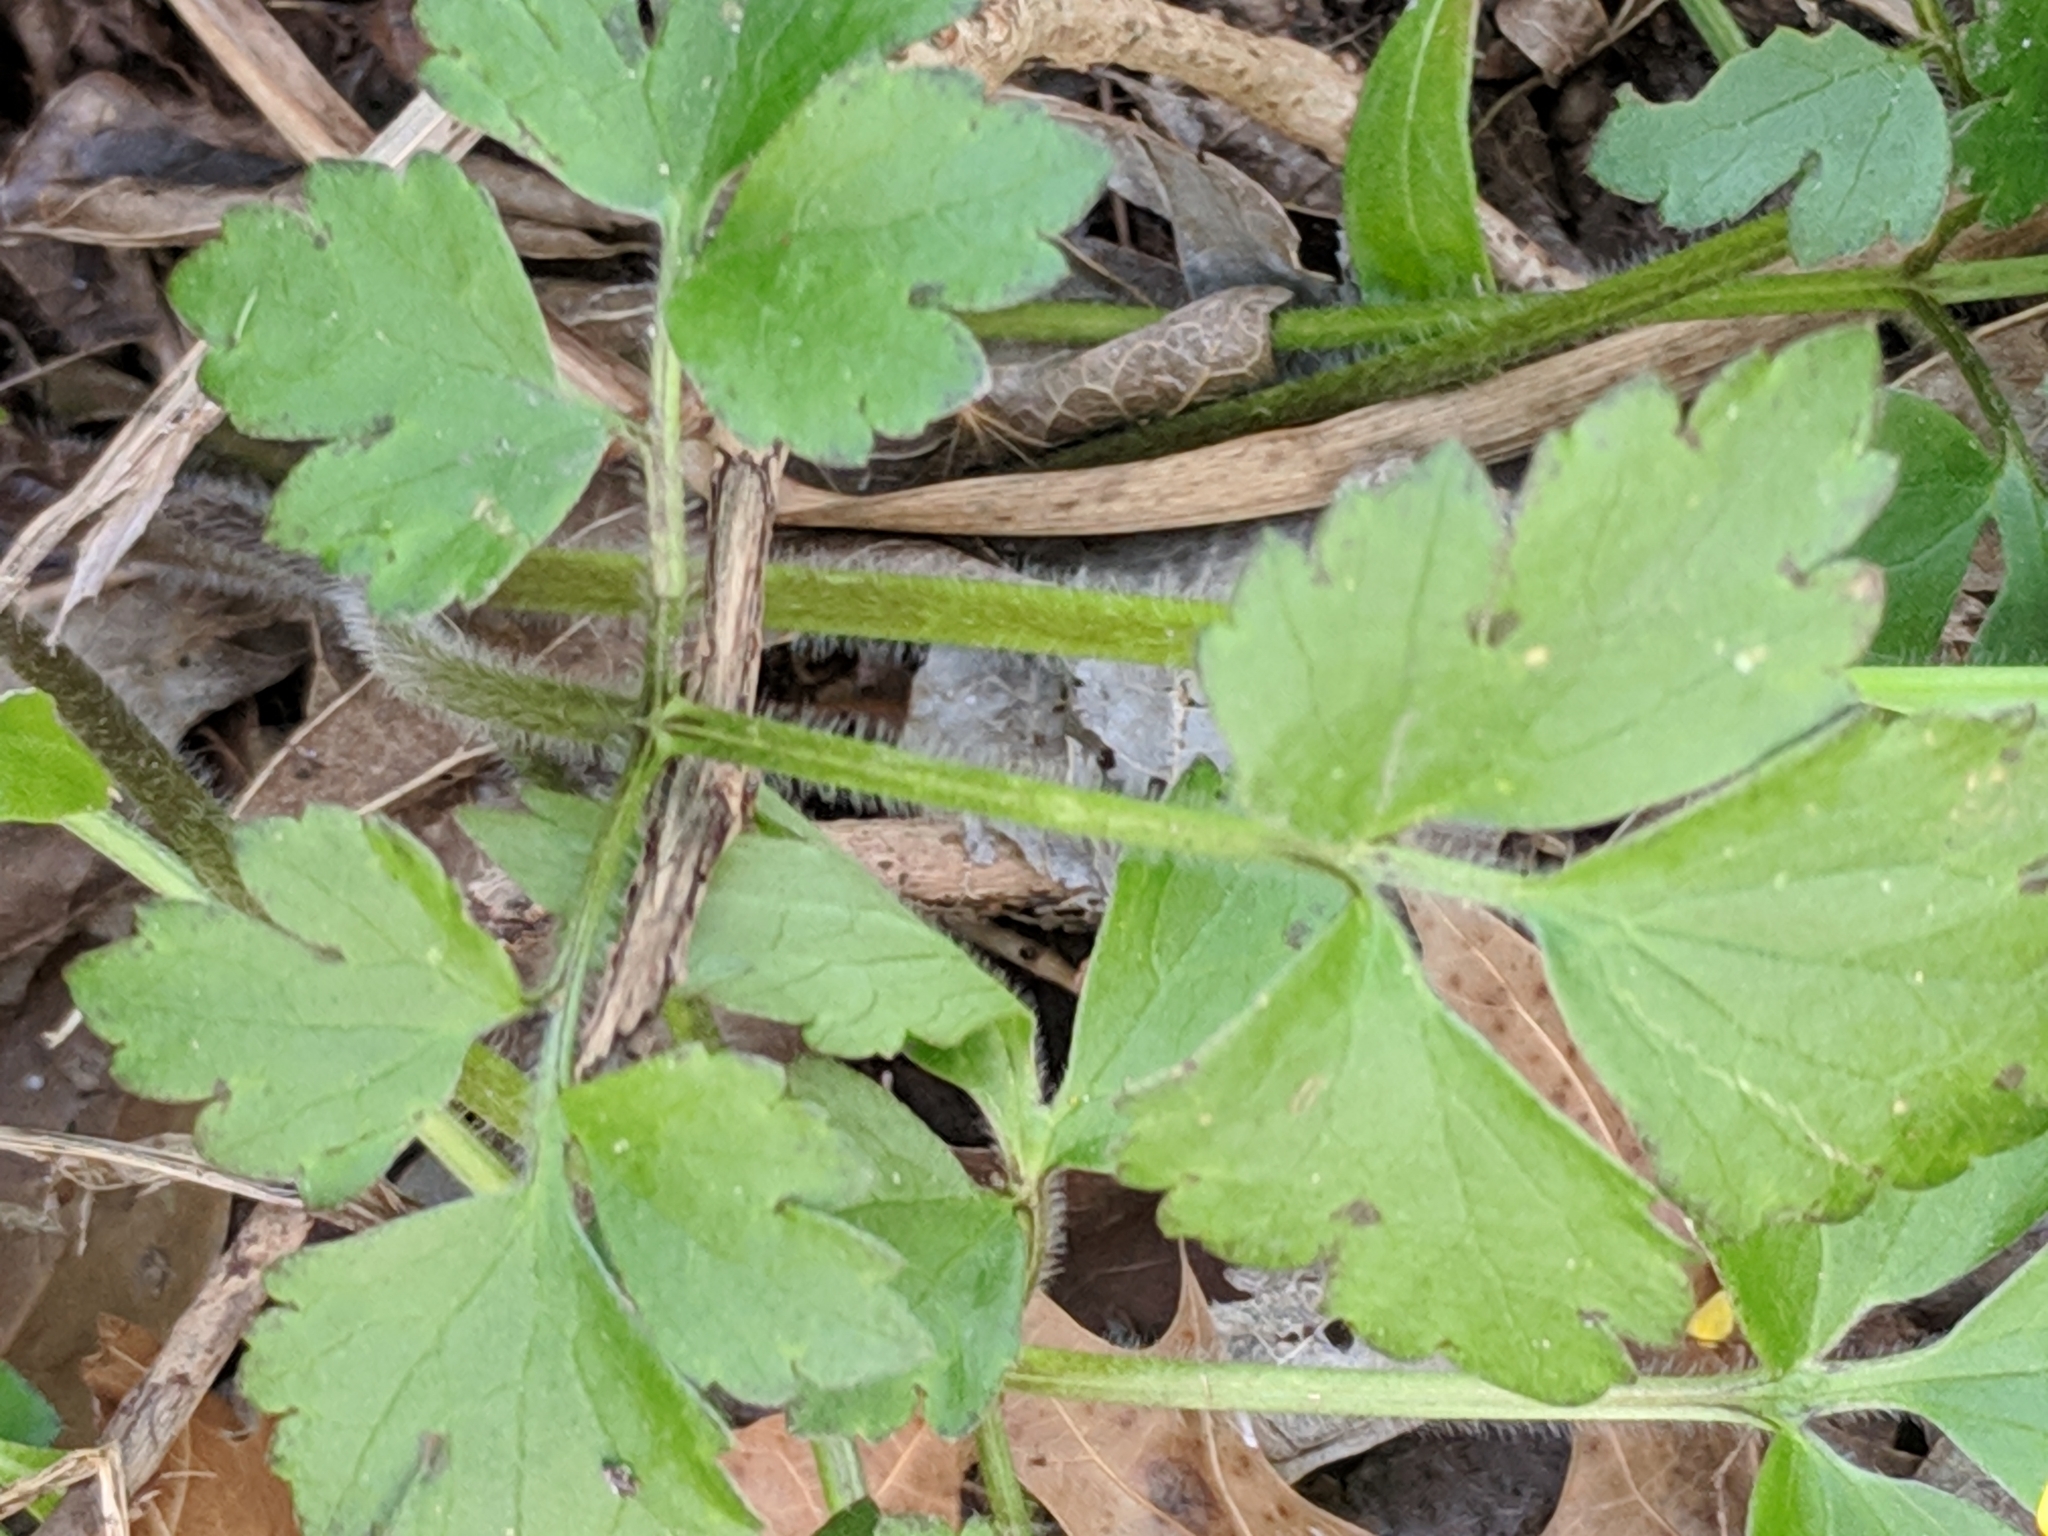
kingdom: Plantae
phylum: Tracheophyta
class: Magnoliopsida
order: Ranunculales
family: Ranunculaceae
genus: Ranunculus
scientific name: Ranunculus hispidus
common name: Bristly buttercup
